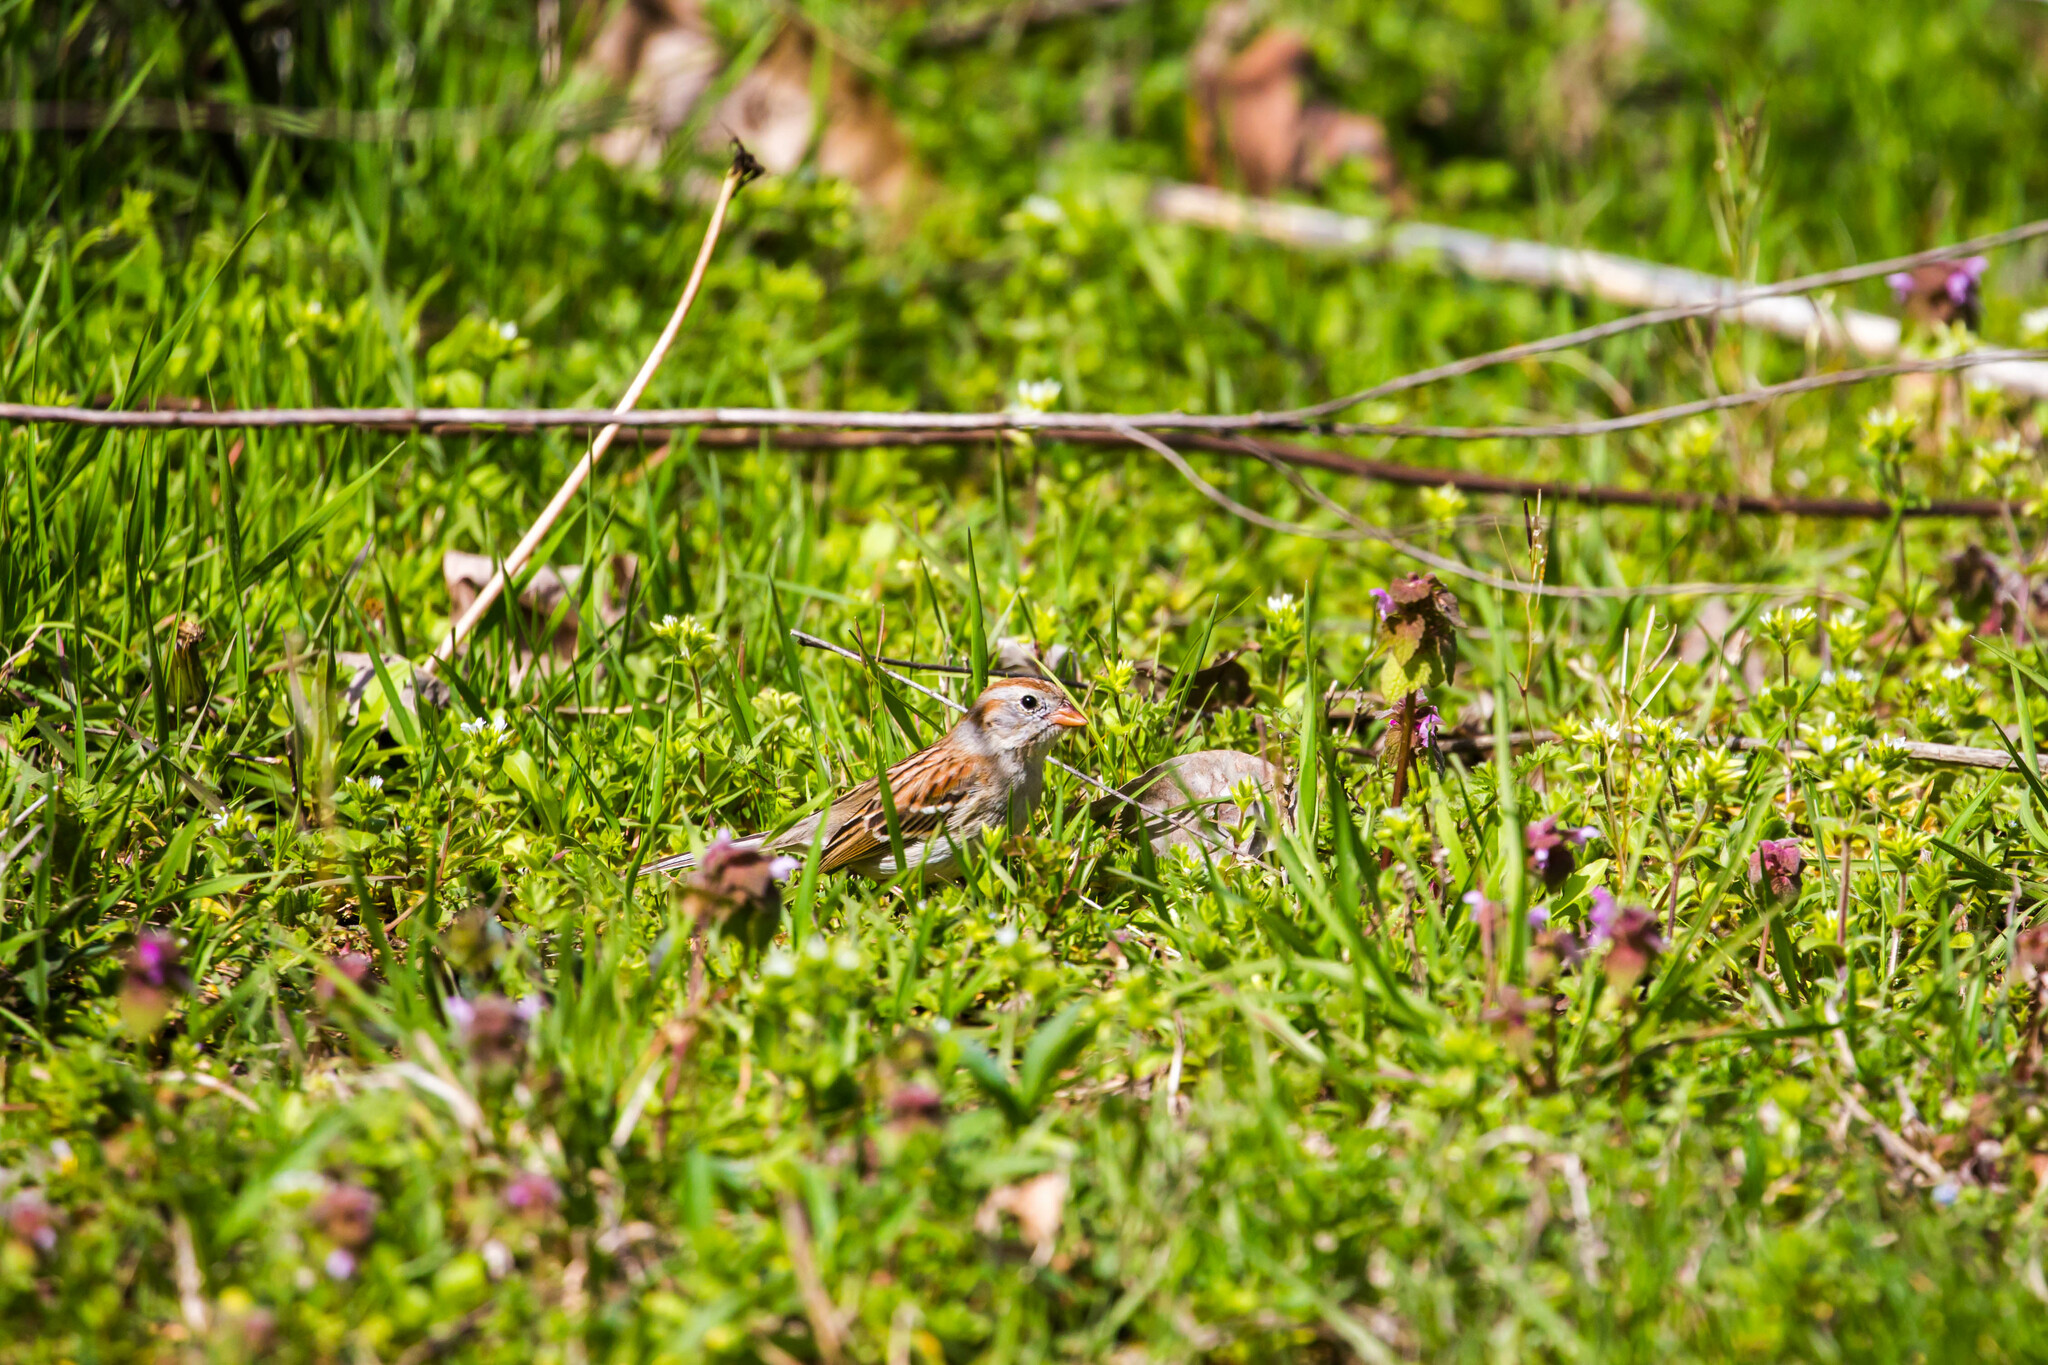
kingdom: Animalia
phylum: Chordata
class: Aves
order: Passeriformes
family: Passerellidae
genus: Spizella
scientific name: Spizella pusilla
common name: Field sparrow
